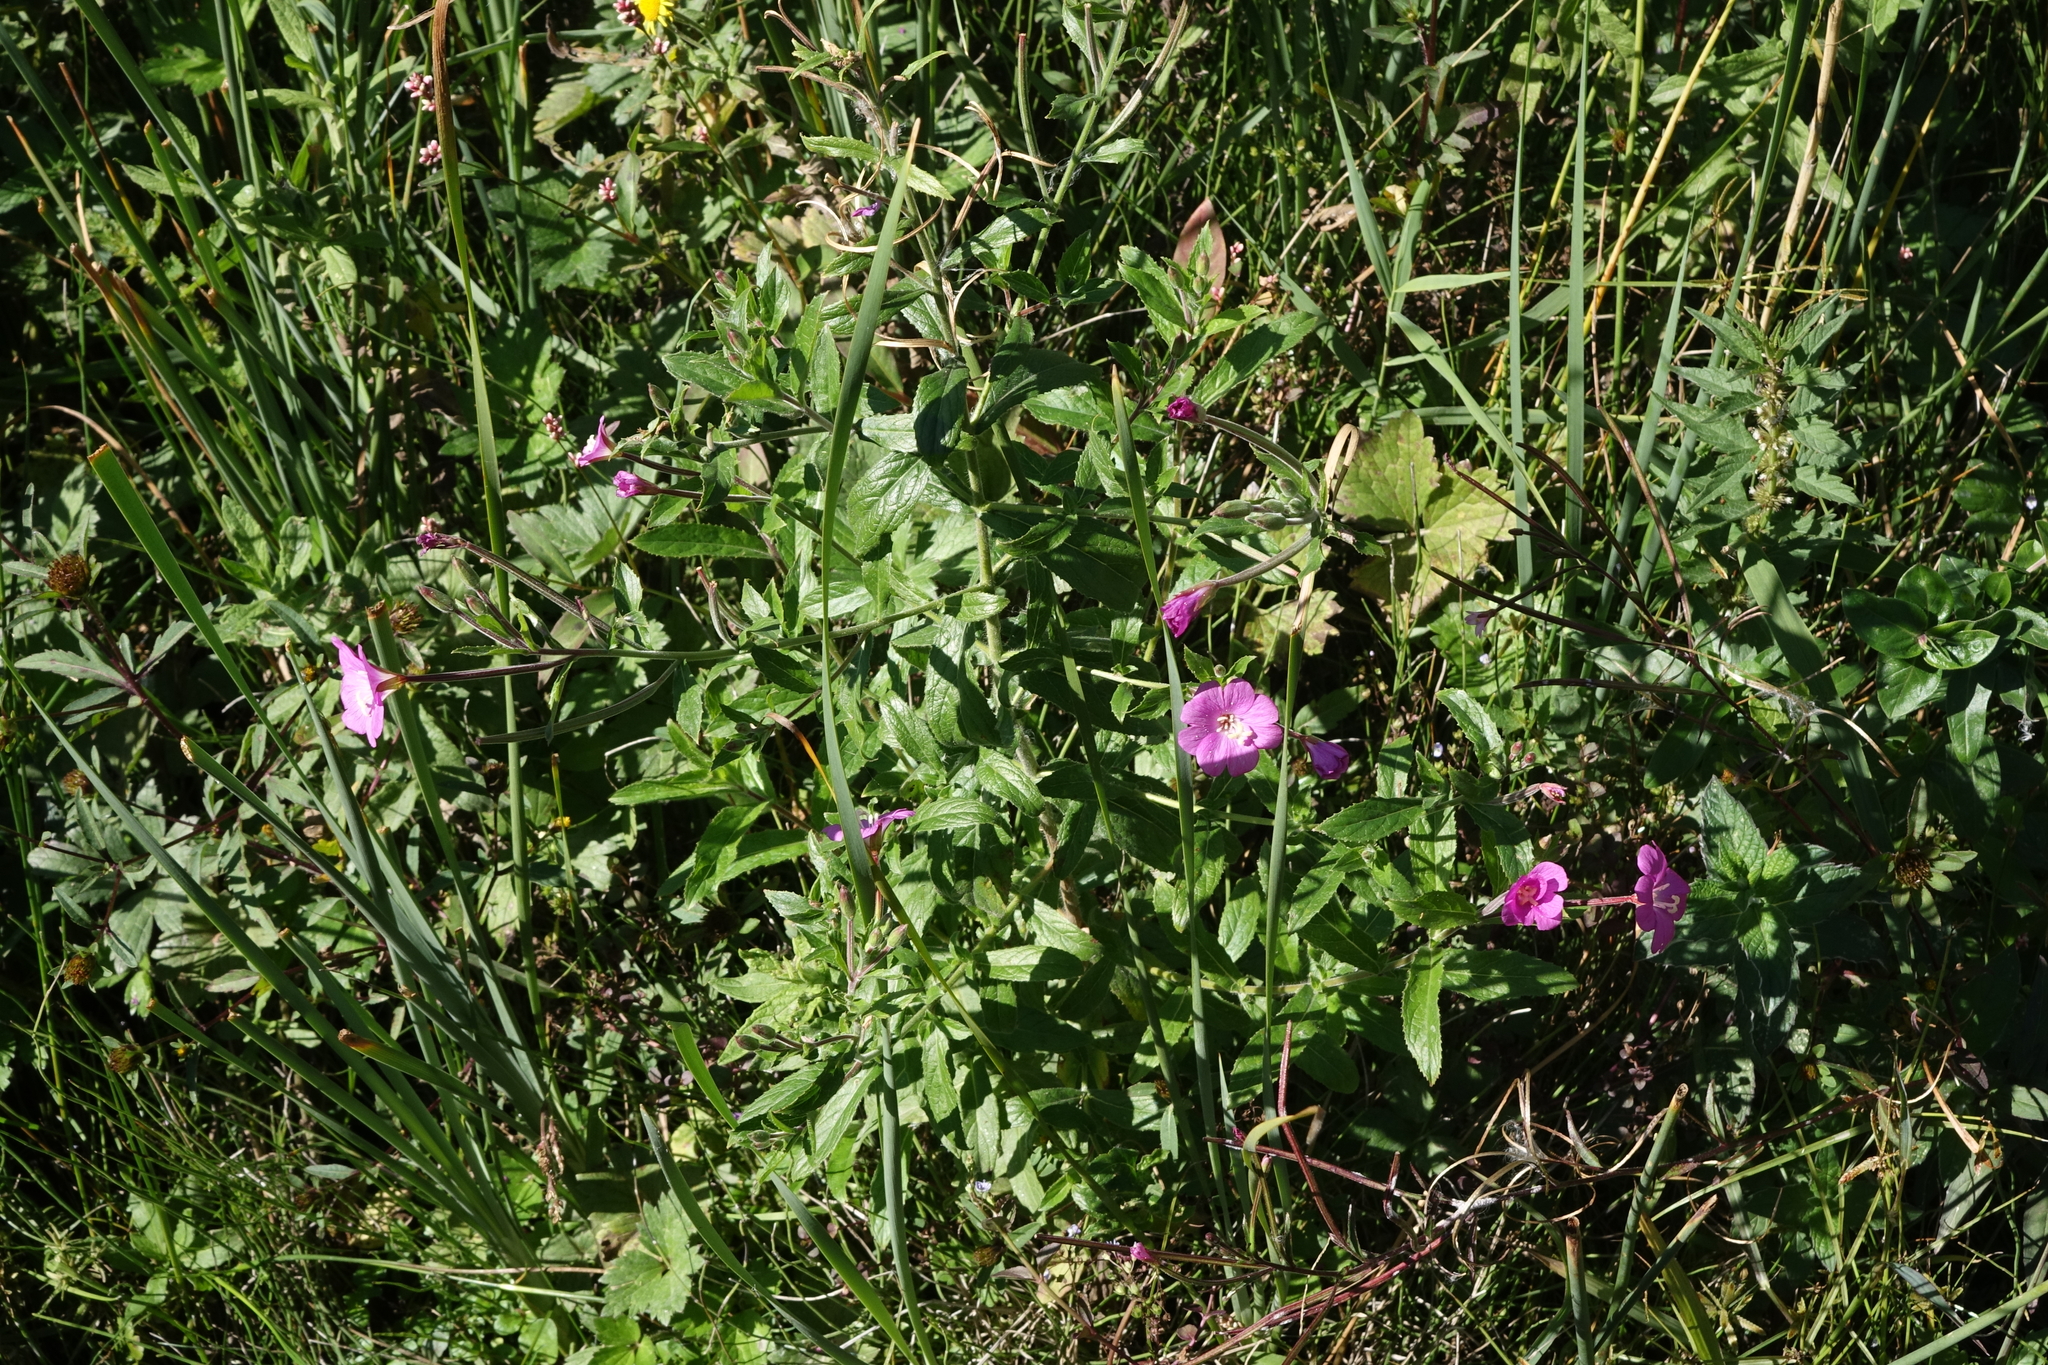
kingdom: Plantae
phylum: Tracheophyta
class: Magnoliopsida
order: Myrtales
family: Onagraceae
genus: Epilobium
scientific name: Epilobium hirsutum
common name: Great willowherb
